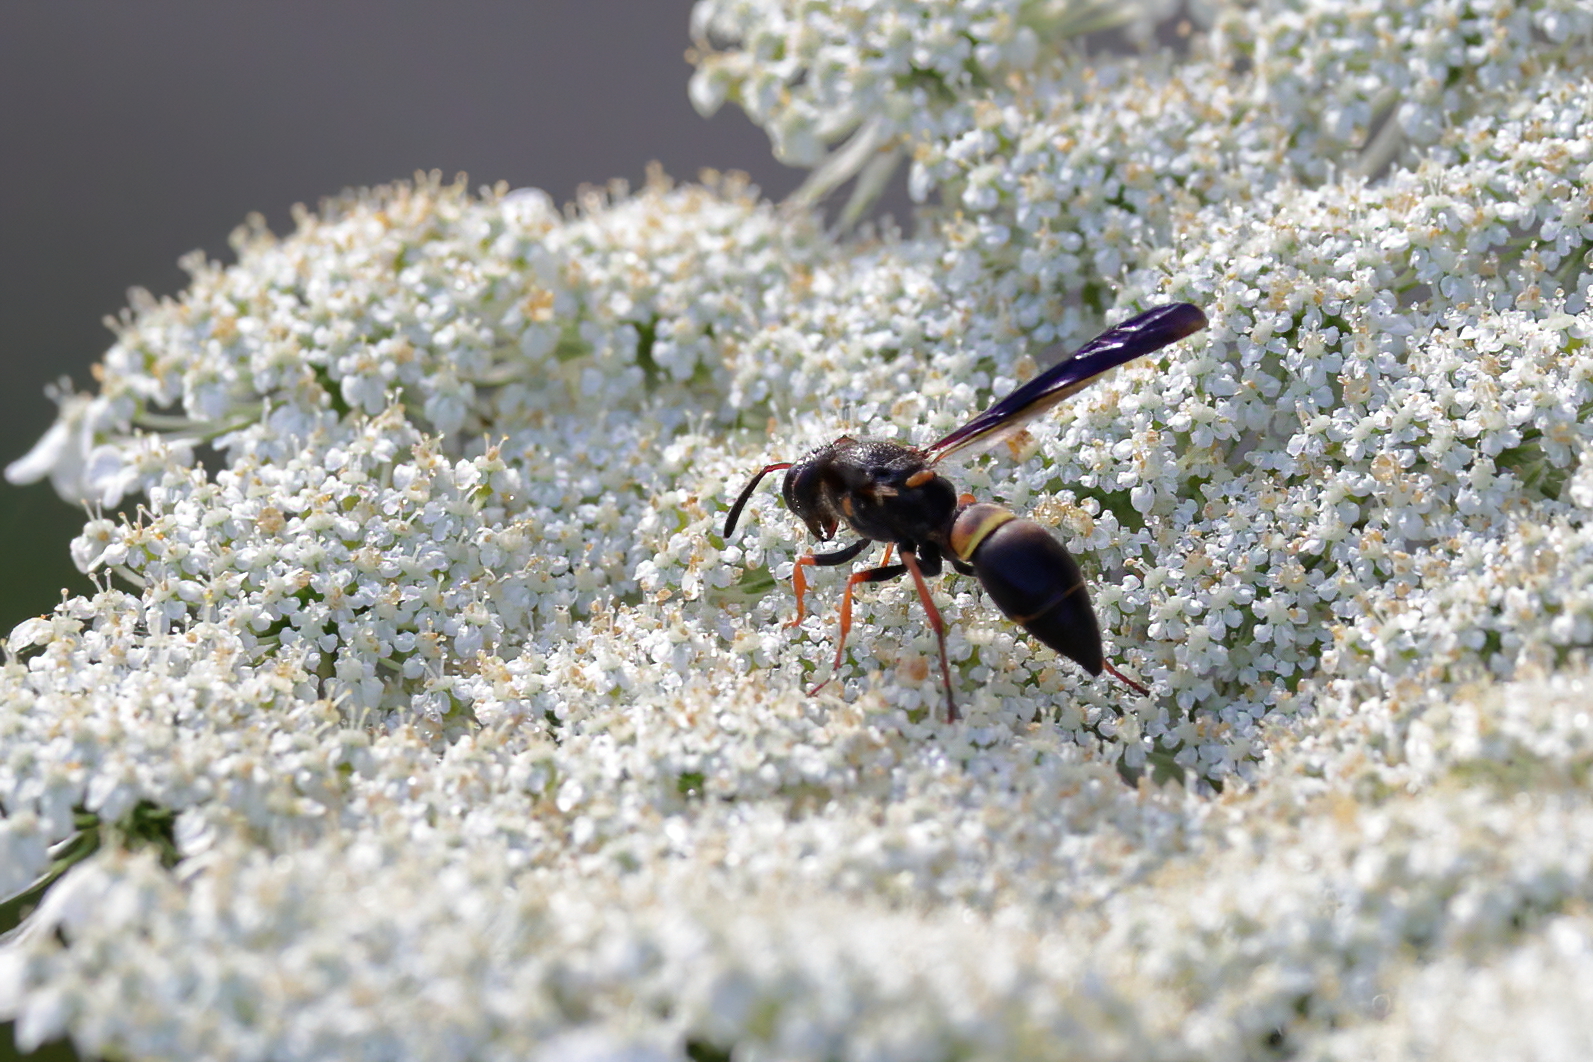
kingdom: Animalia
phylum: Arthropoda
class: Insecta
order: Hymenoptera
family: Vespidae
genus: Ancistrocerus
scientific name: Ancistrocerus unifasciatus
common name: One-banded mason wasp
